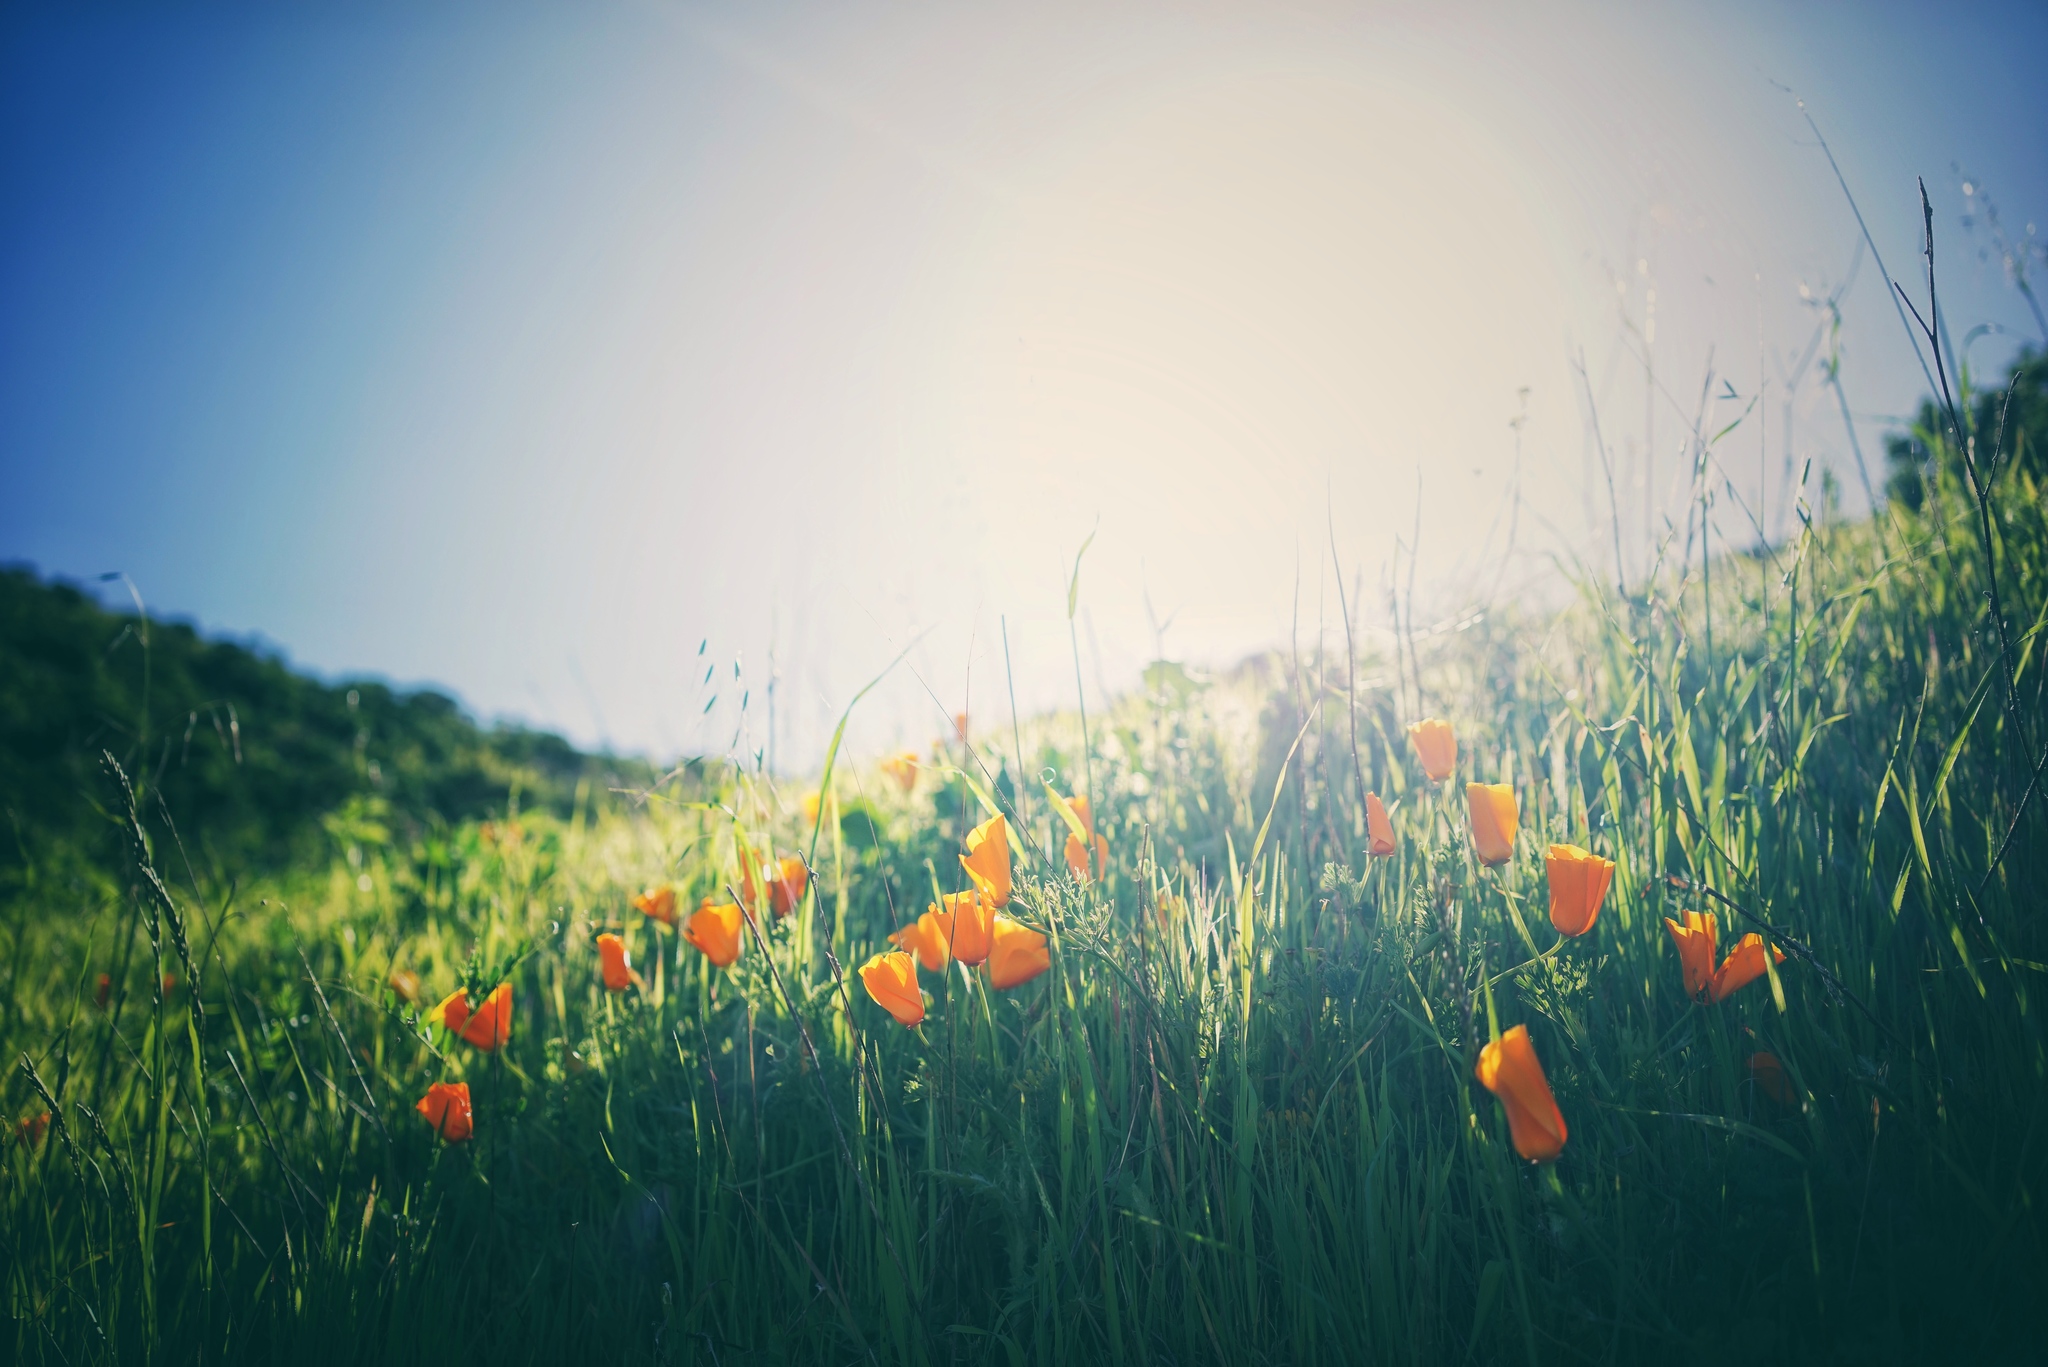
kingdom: Plantae
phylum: Tracheophyta
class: Magnoliopsida
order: Ranunculales
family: Papaveraceae
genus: Eschscholzia
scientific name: Eschscholzia californica
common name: California poppy
